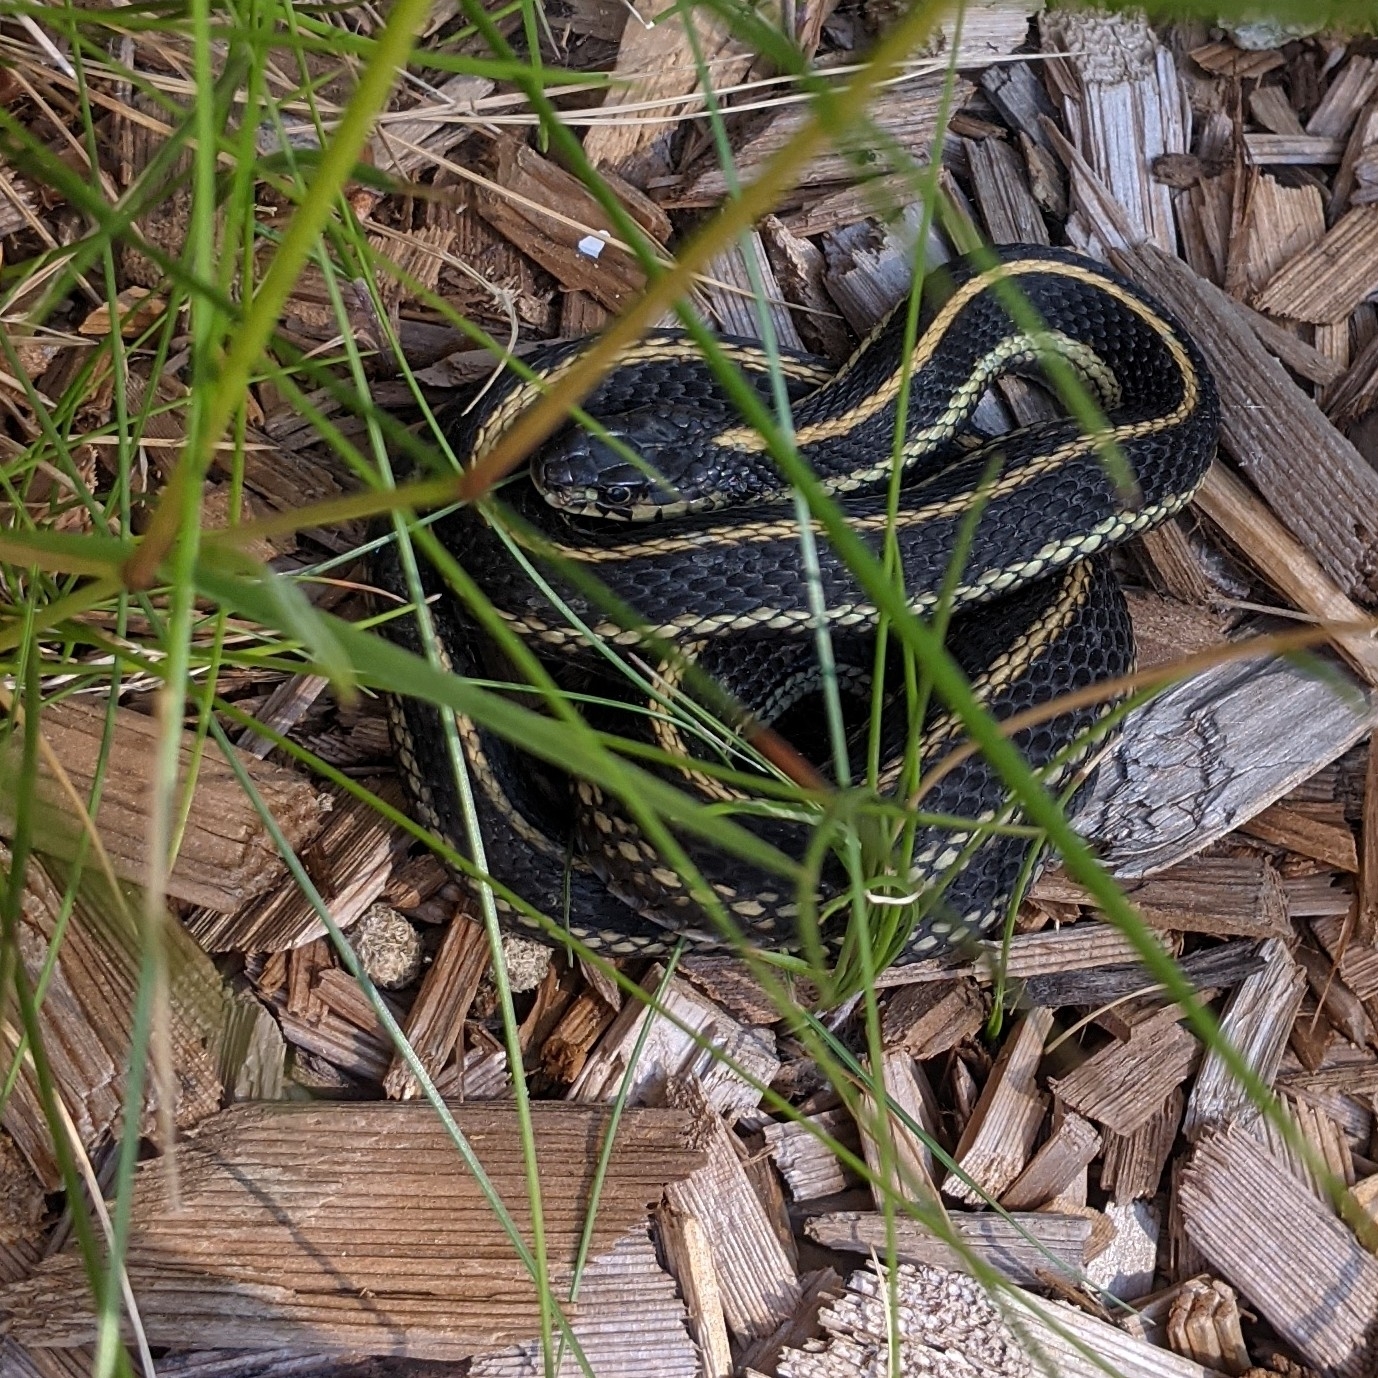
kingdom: Animalia
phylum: Chordata
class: Squamata
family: Colubridae
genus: Thamnophis
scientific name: Thamnophis sirtalis
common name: Common garter snake
